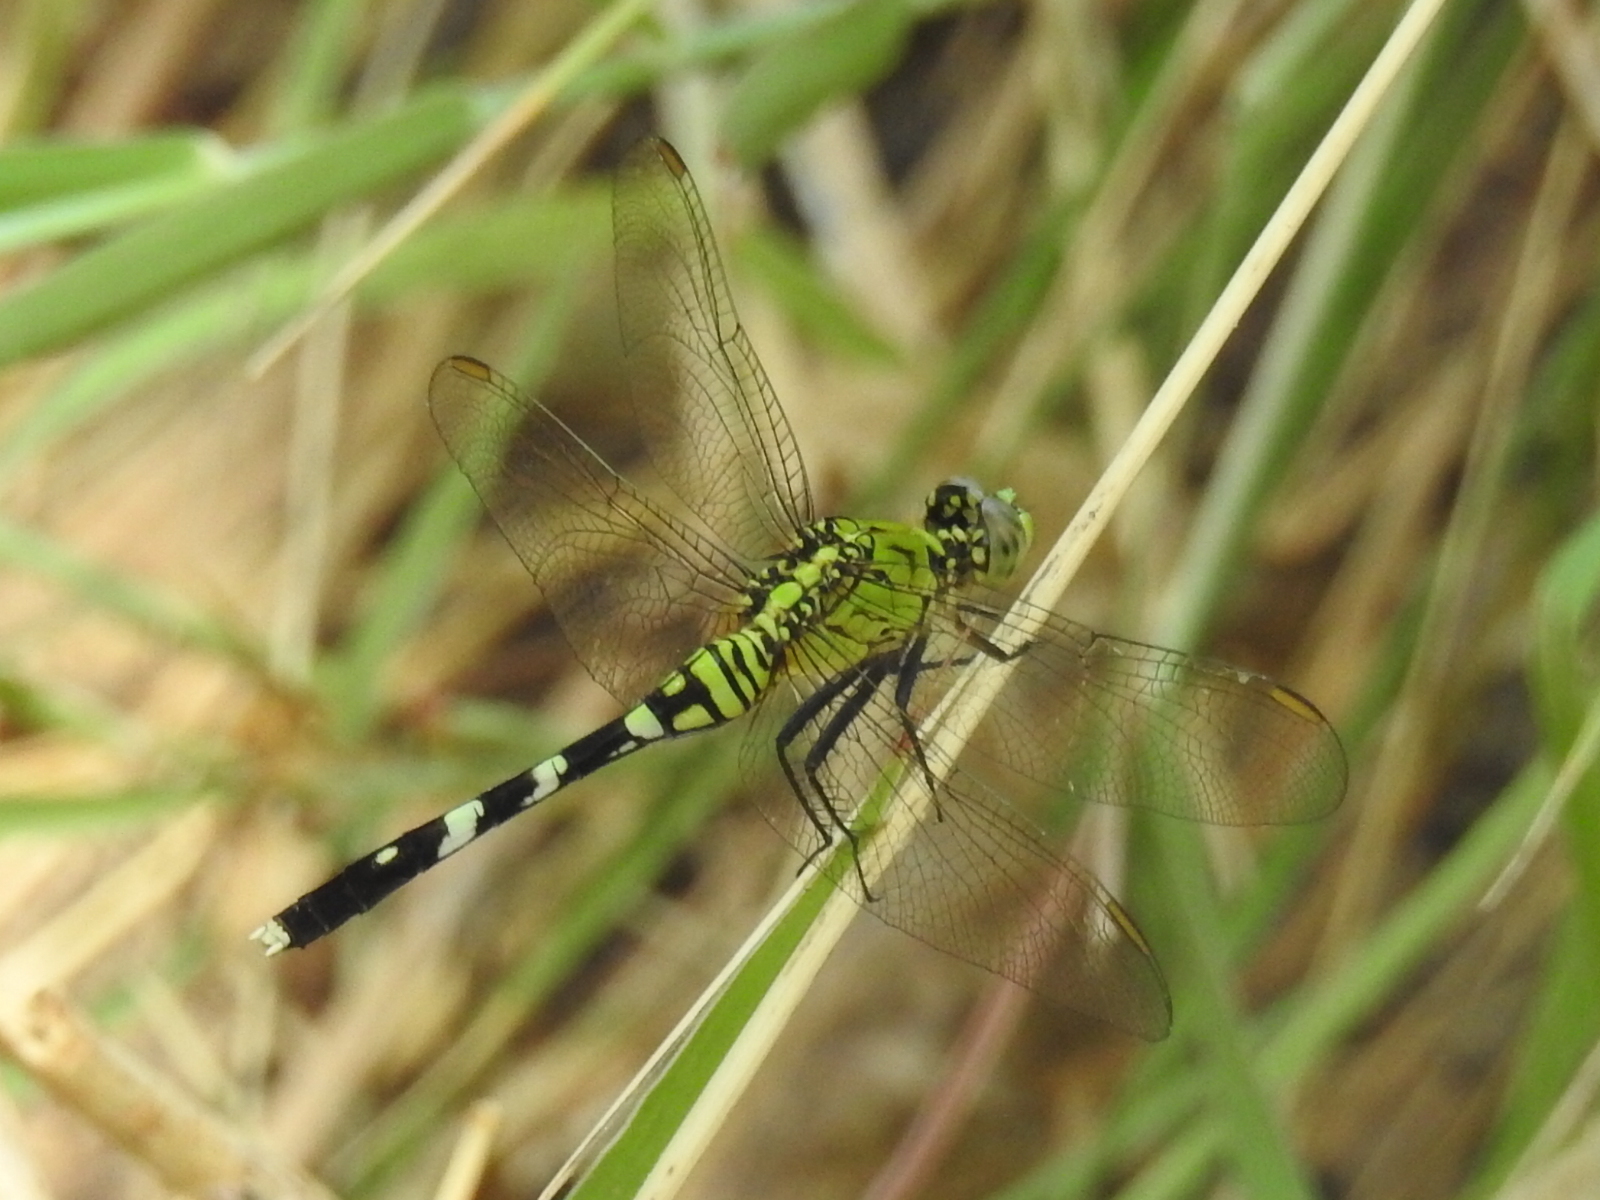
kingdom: Animalia
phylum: Arthropoda
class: Insecta
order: Odonata
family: Libellulidae
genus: Erythemis
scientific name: Erythemis simplicicollis
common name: Eastern pondhawk
